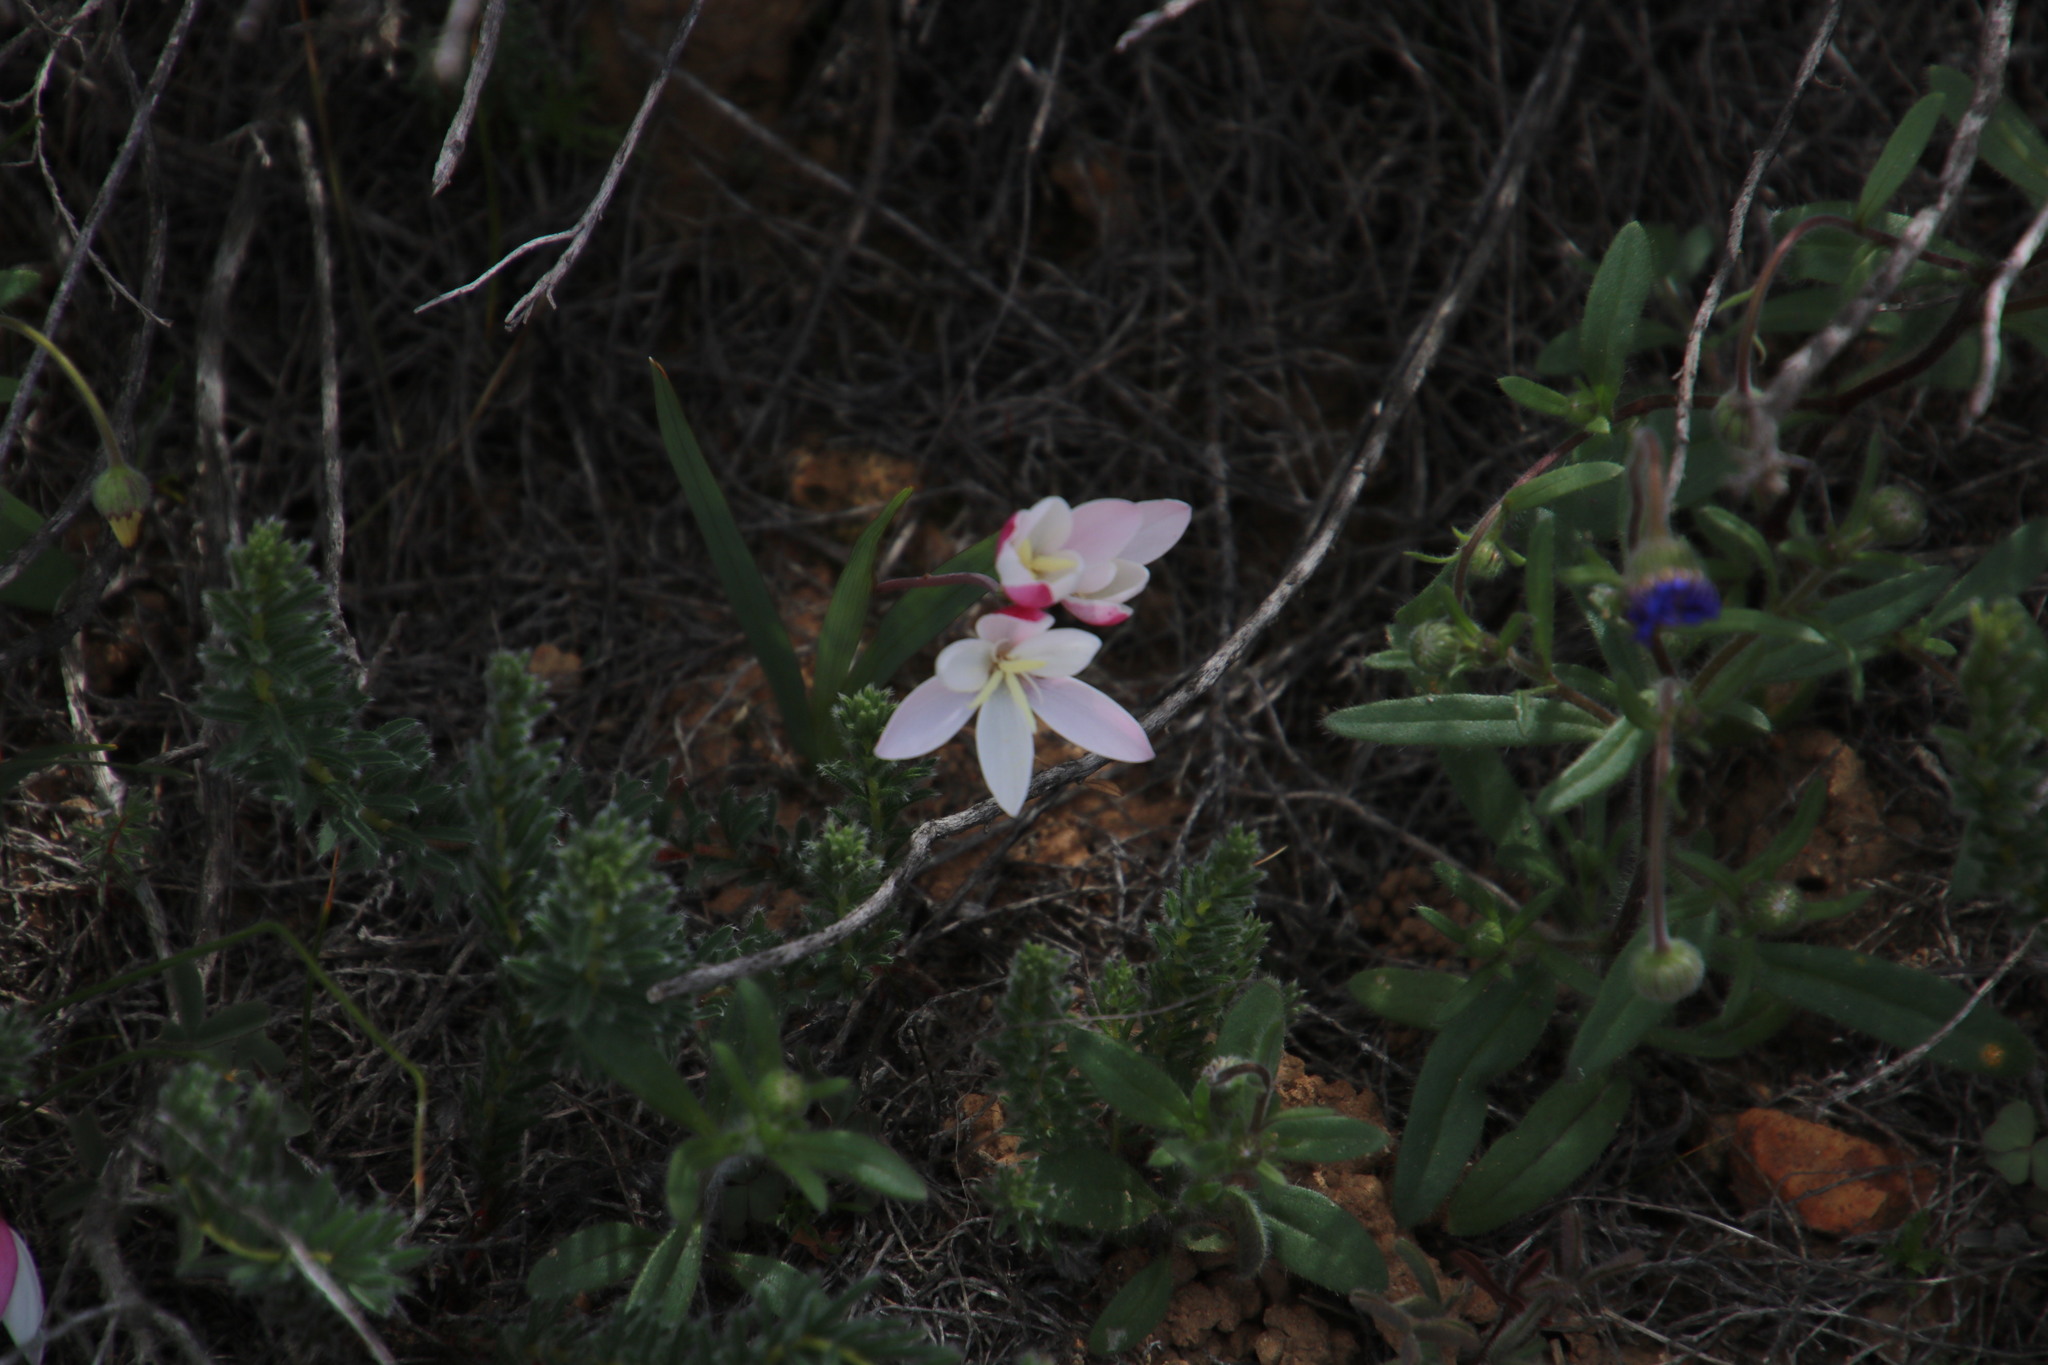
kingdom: Plantae
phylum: Tracheophyta
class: Liliopsida
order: Asparagales
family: Iridaceae
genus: Hesperantha
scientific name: Hesperantha cucullata
